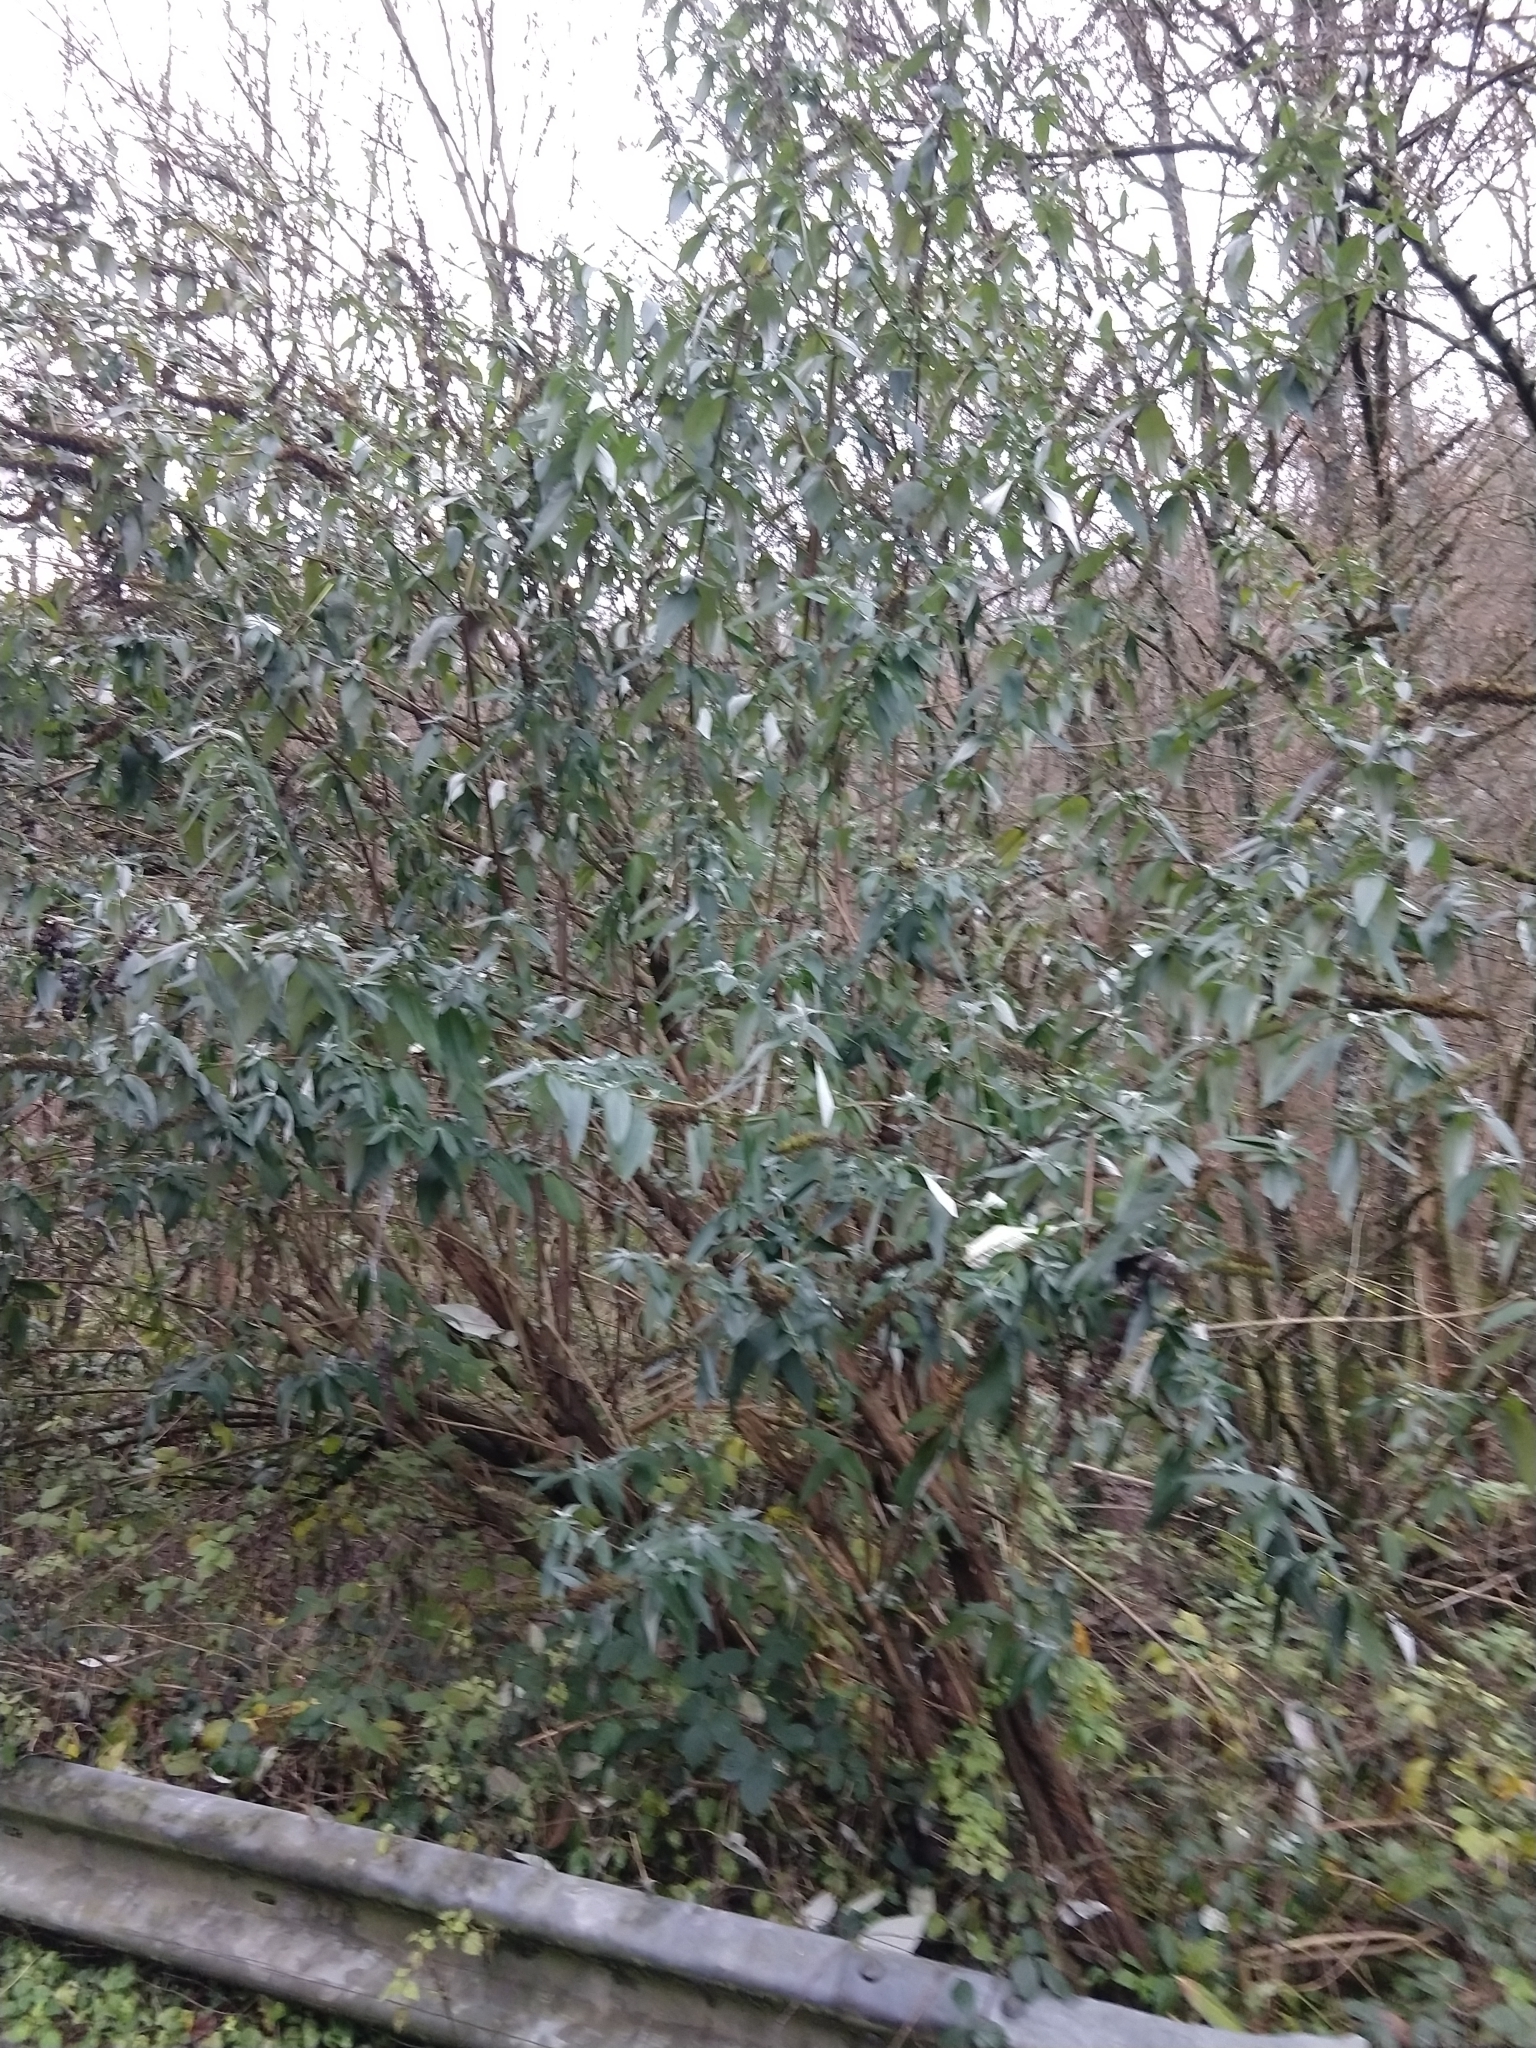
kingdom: Plantae
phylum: Tracheophyta
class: Magnoliopsida
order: Lamiales
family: Scrophulariaceae
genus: Buddleja
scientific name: Buddleja davidii
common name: Butterfly-bush
